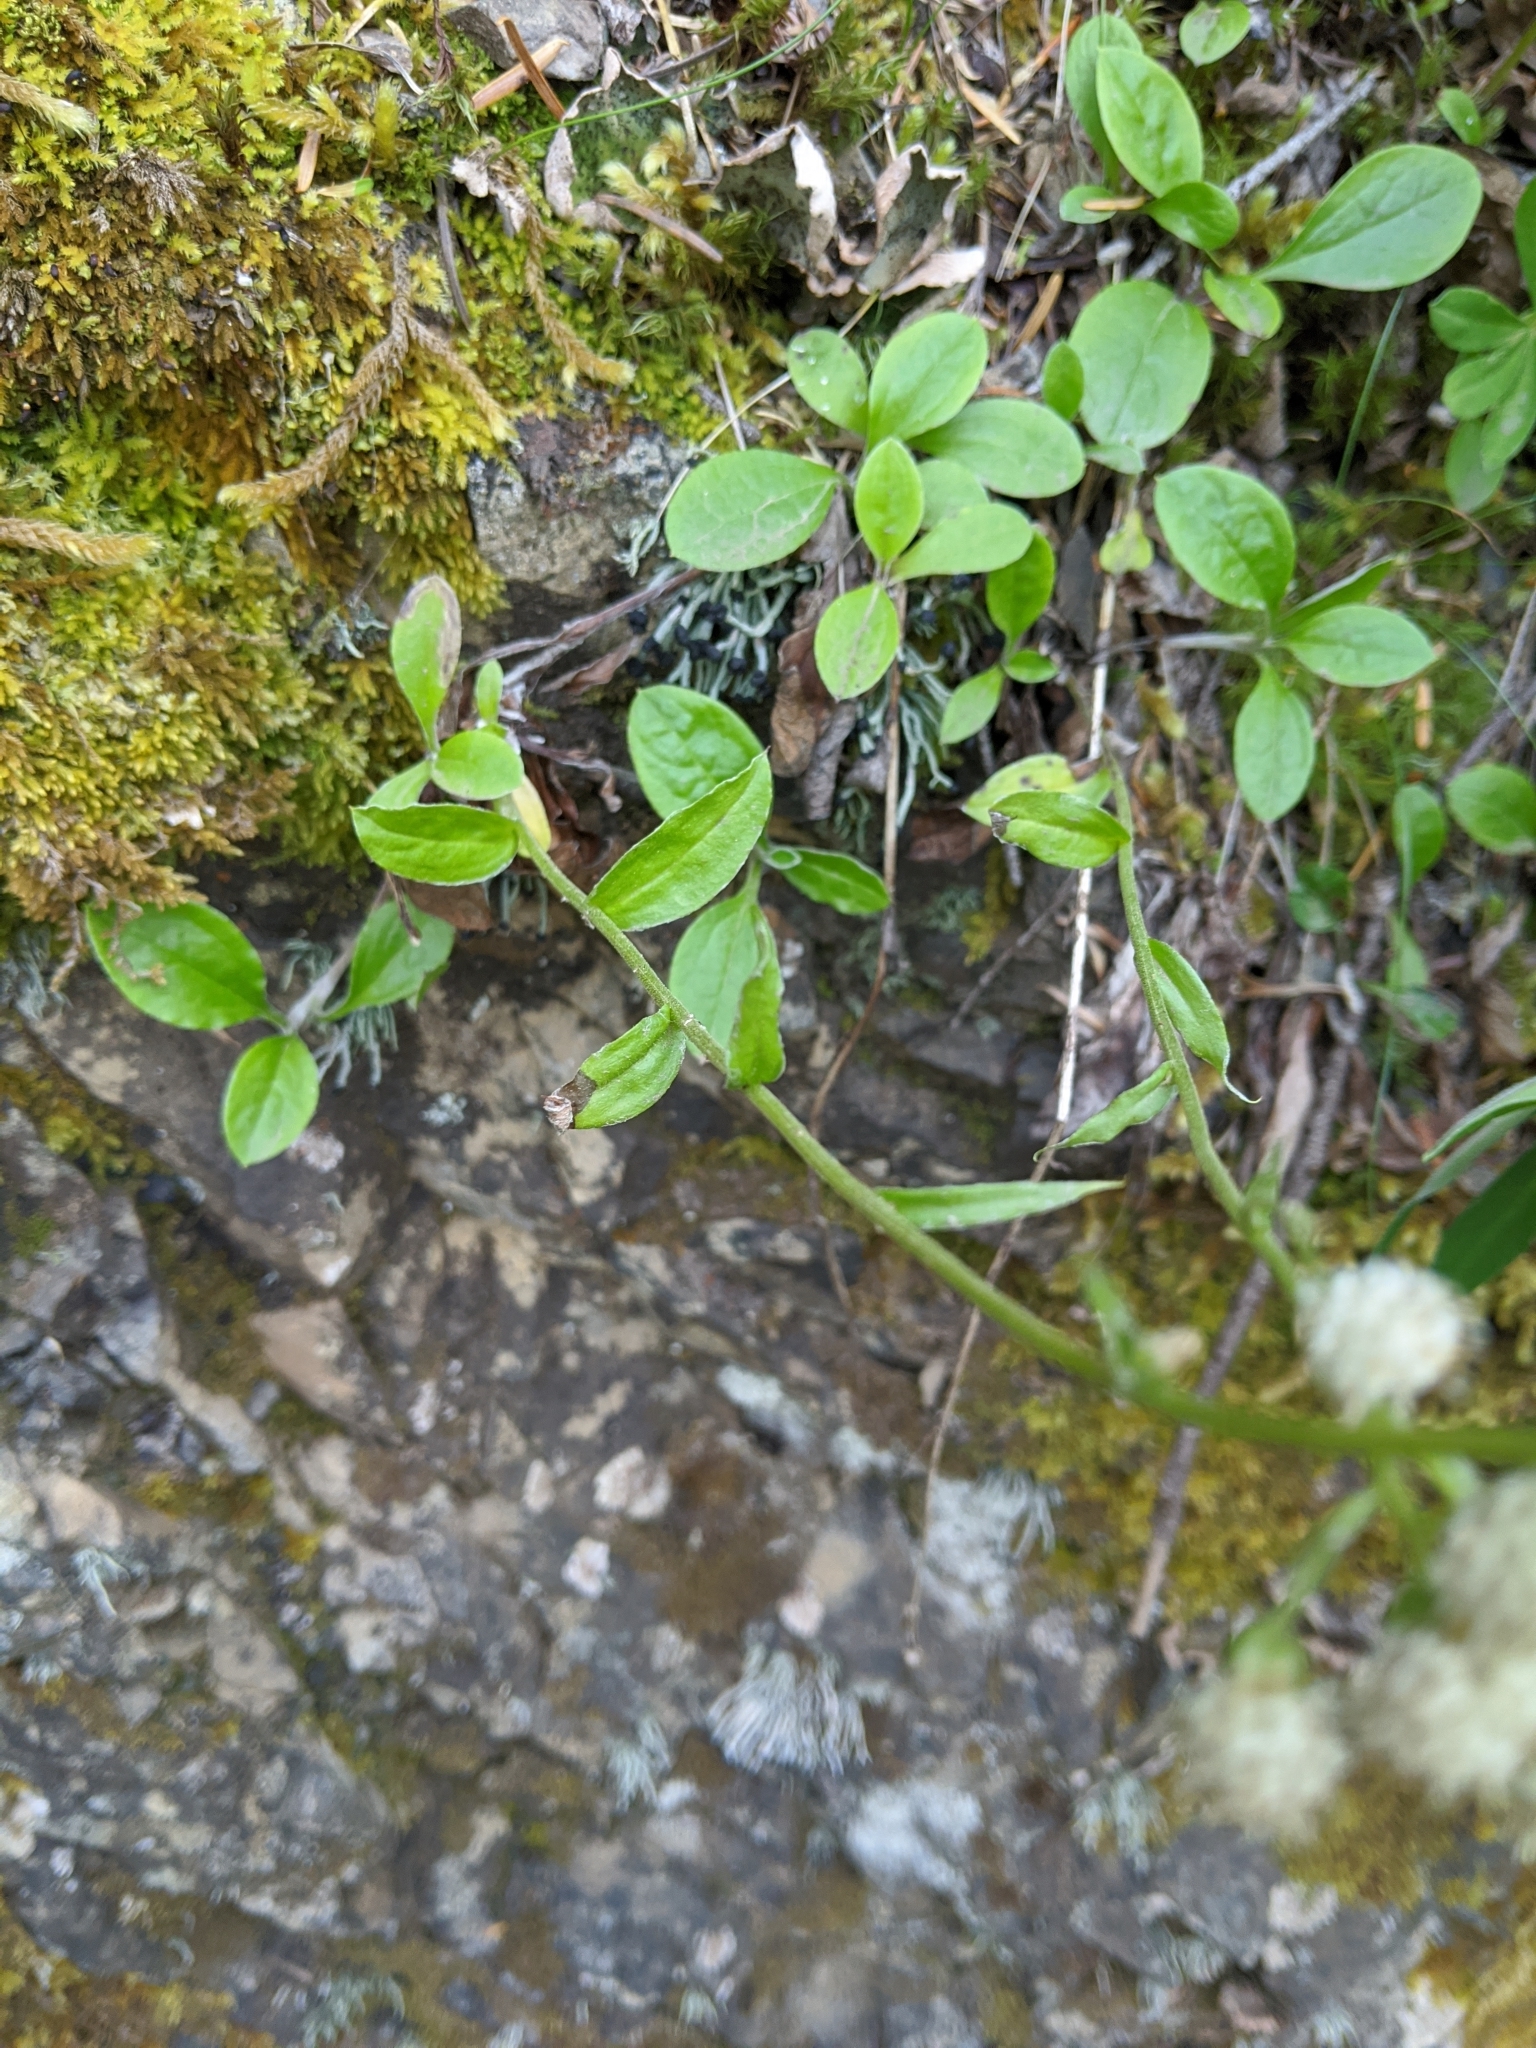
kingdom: Plantae
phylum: Tracheophyta
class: Magnoliopsida
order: Asterales
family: Asteraceae
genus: Antennaria
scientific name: Antennaria racemosa
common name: Racemose pussytoes
